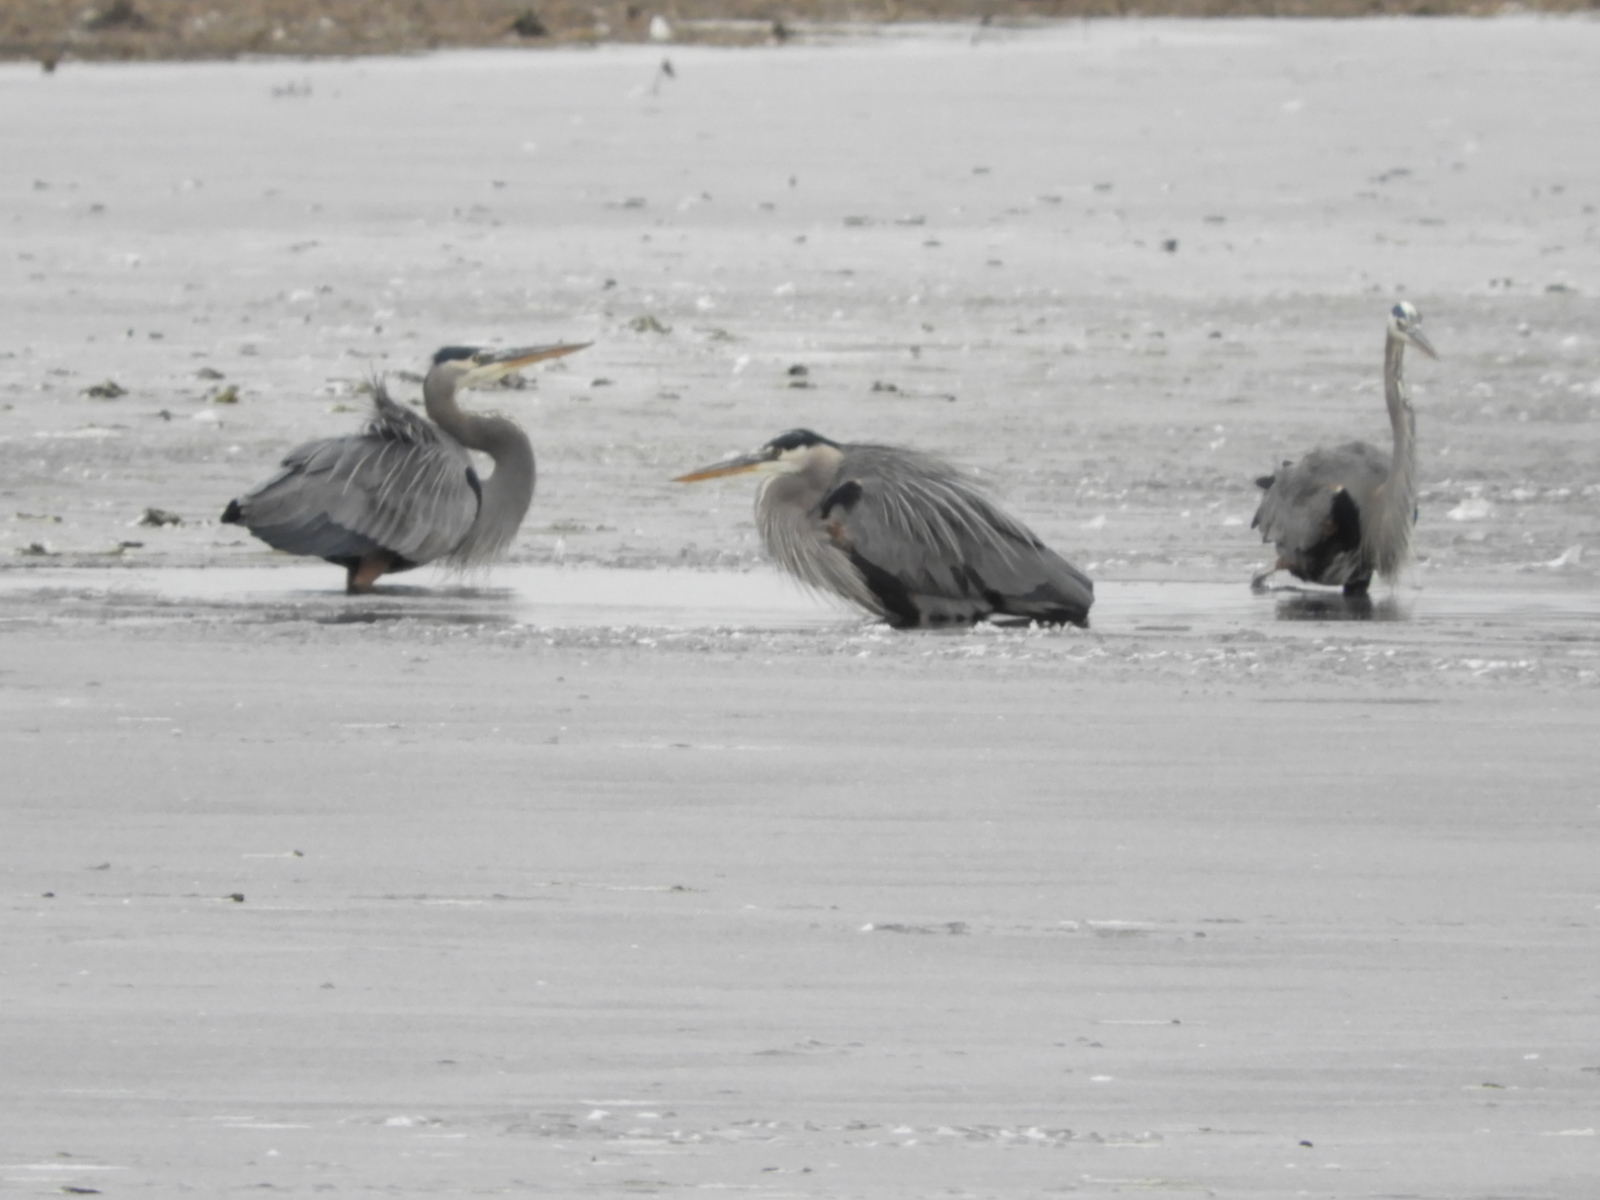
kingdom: Animalia
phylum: Chordata
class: Aves
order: Pelecaniformes
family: Ardeidae
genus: Ardea
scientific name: Ardea herodias
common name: Great blue heron
